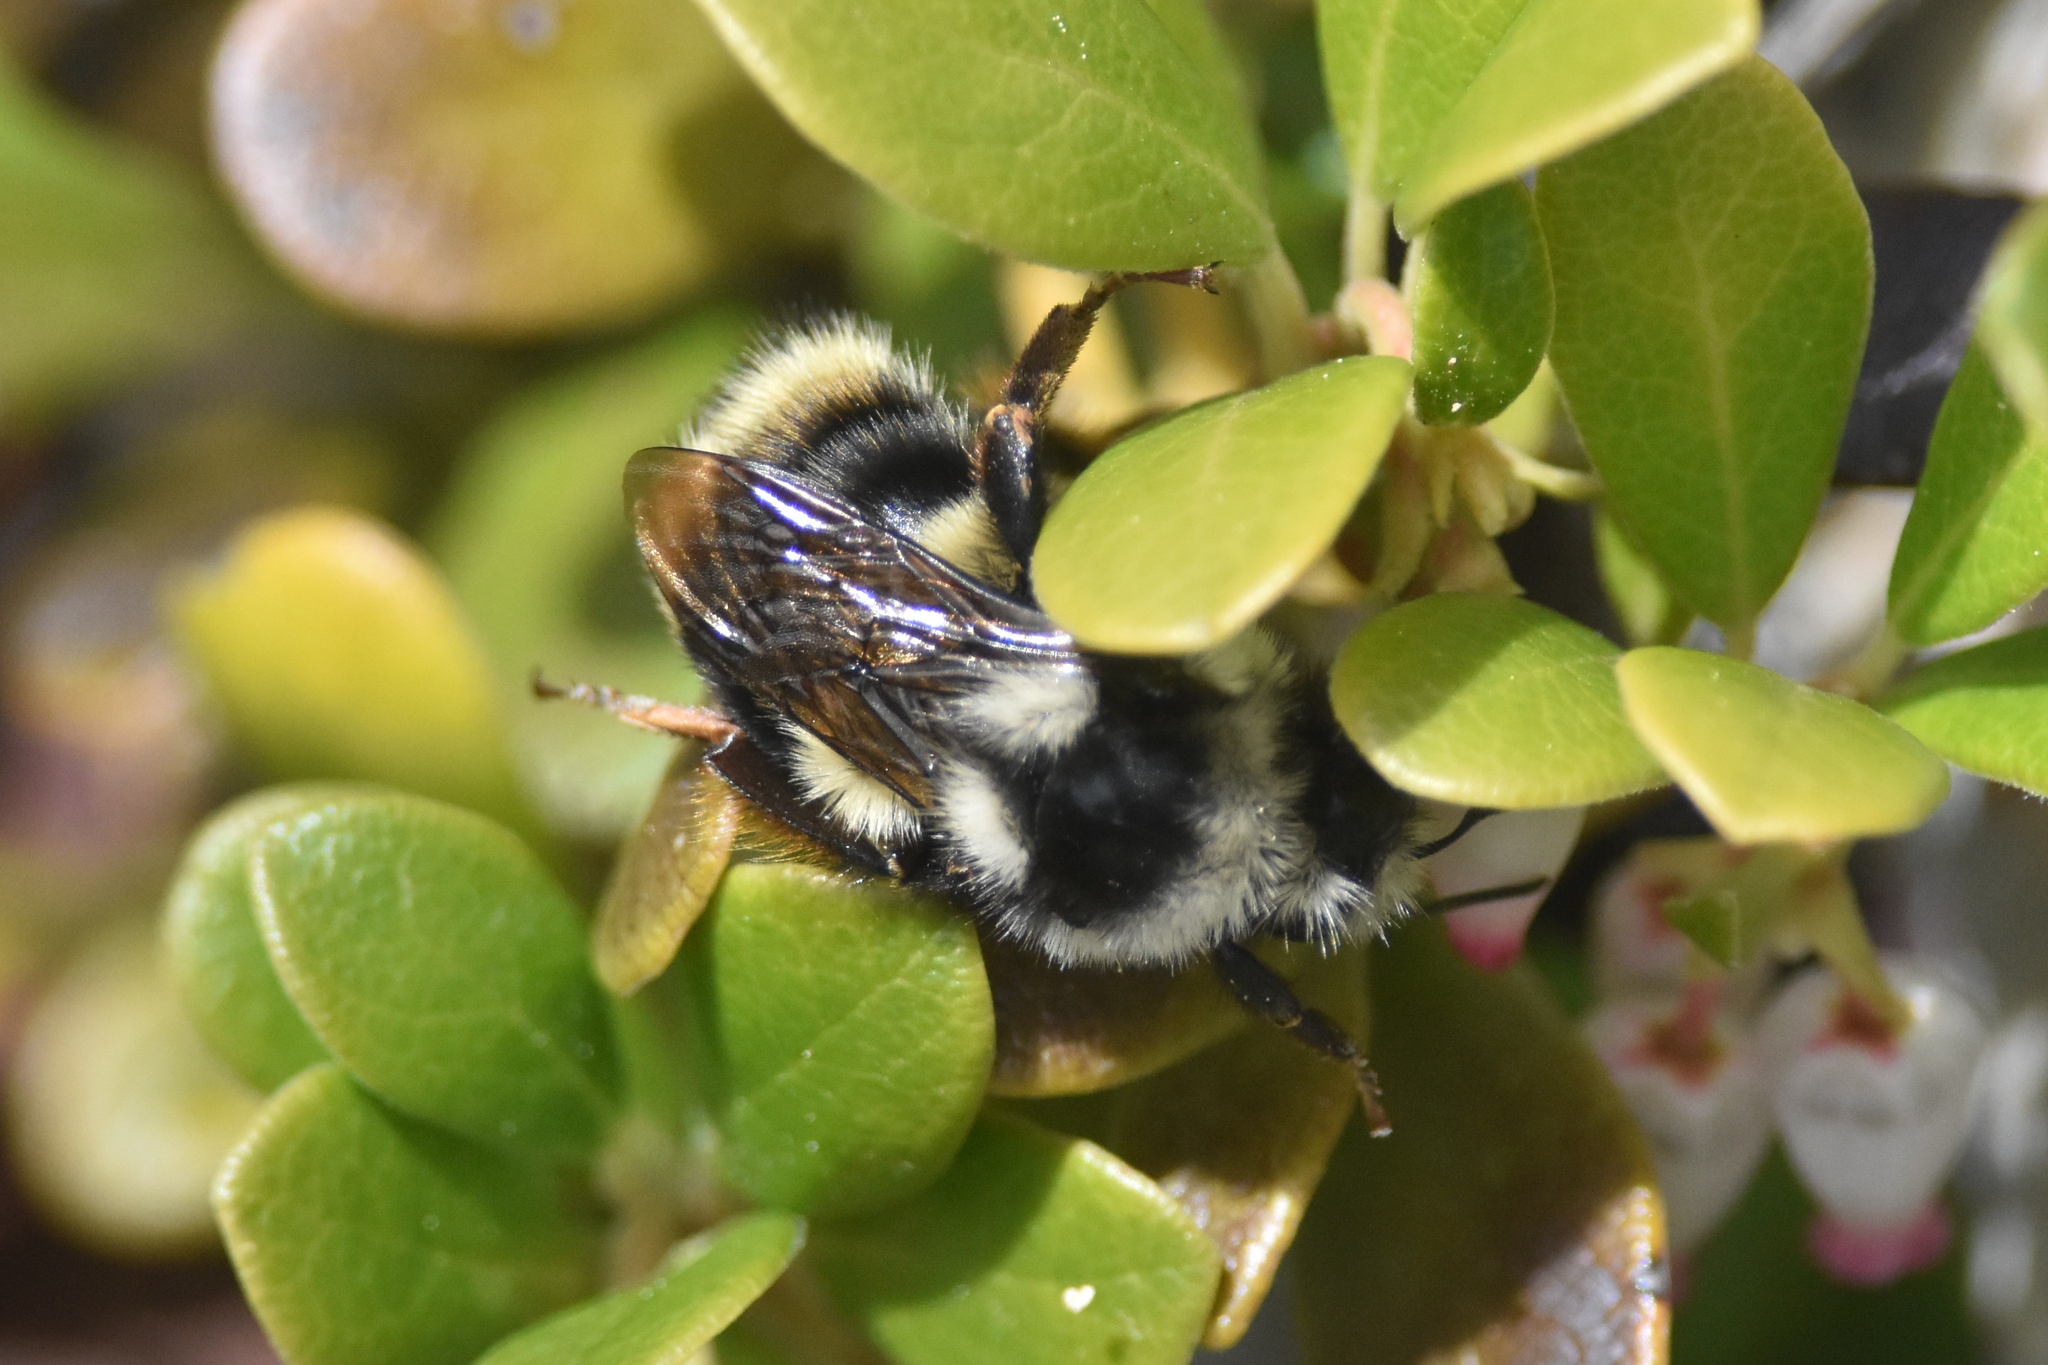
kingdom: Animalia
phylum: Arthropoda
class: Insecta
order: Hymenoptera
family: Apidae
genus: Bombus
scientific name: Bombus vancouverensis
